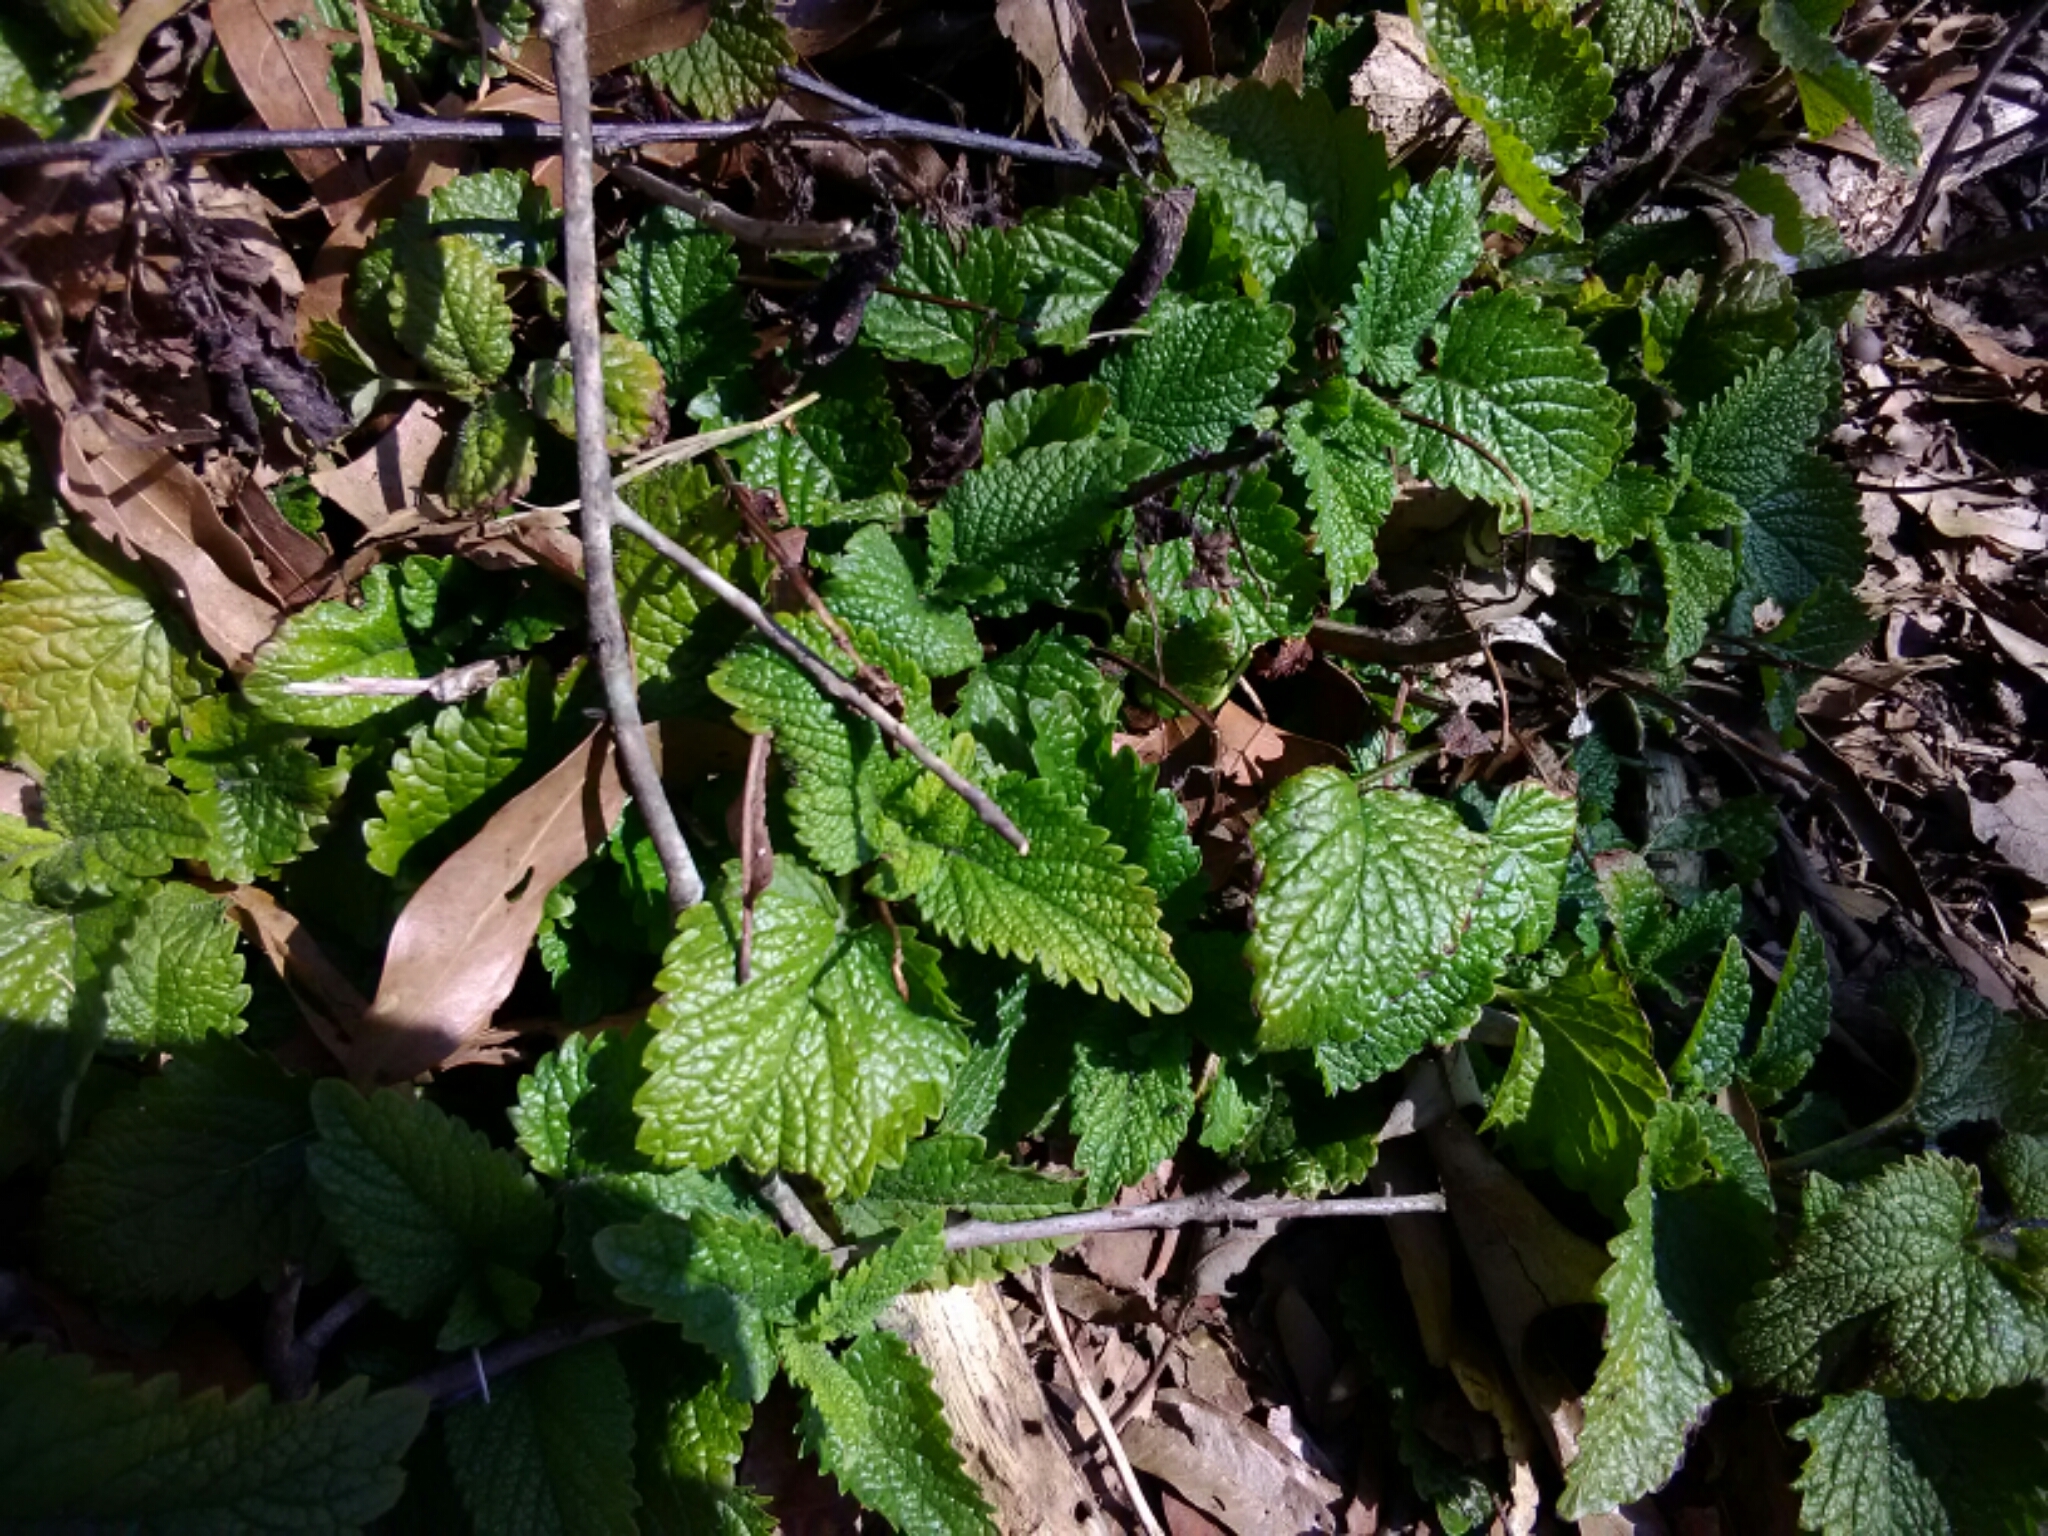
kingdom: Plantae
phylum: Tracheophyta
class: Magnoliopsida
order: Lamiales
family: Lamiaceae
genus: Melissa
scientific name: Melissa officinalis
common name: Balm
